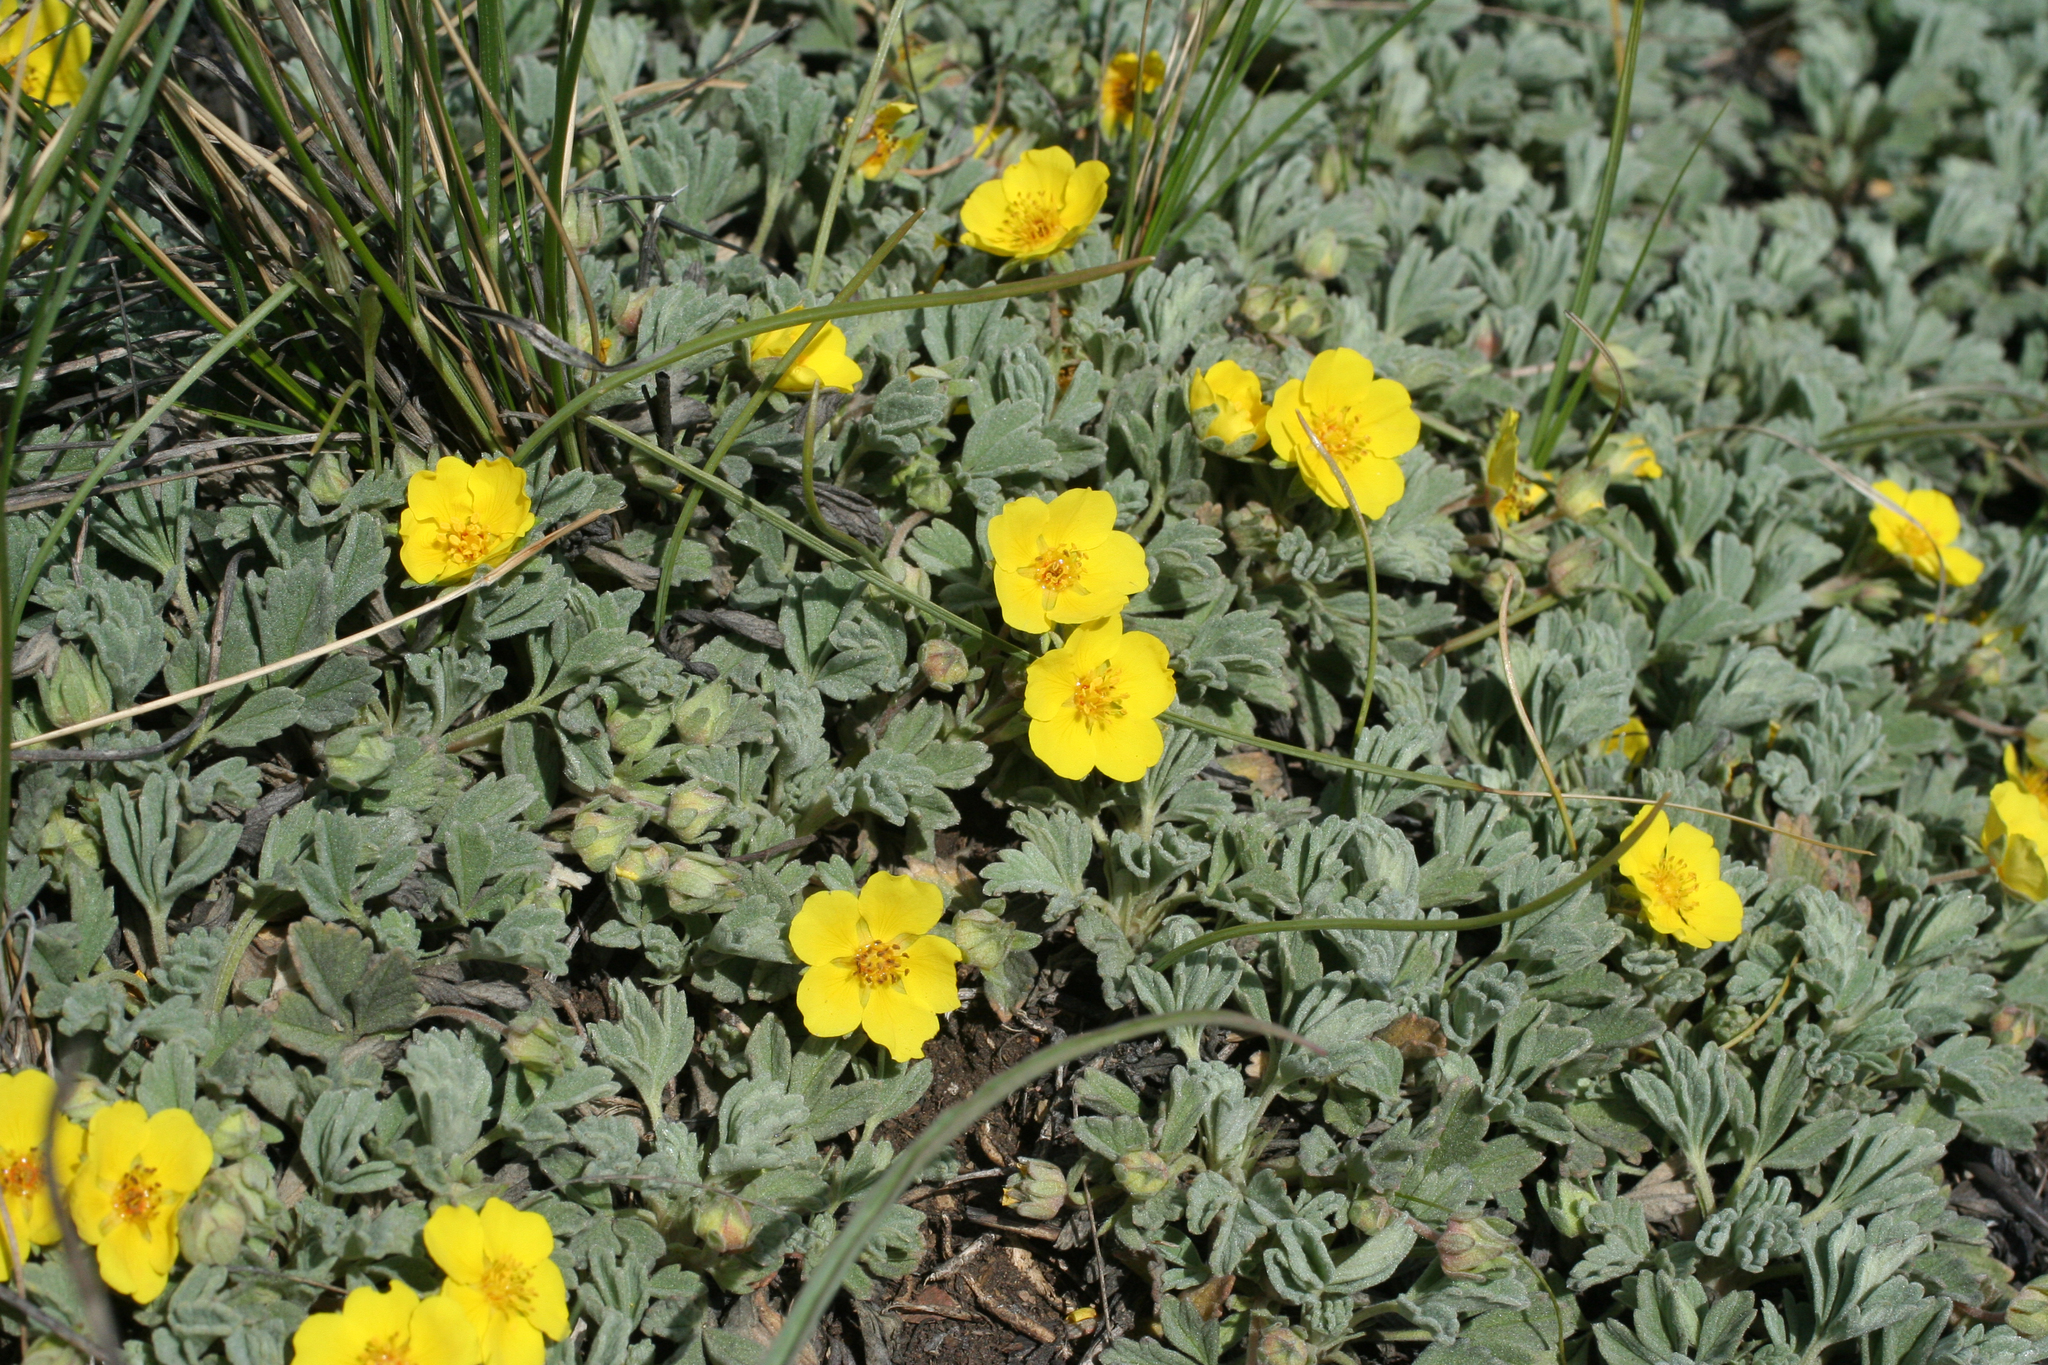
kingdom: Plantae
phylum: Tracheophyta
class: Magnoliopsida
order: Rosales
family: Rosaceae
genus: Potentilla
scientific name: Potentilla acaulis
